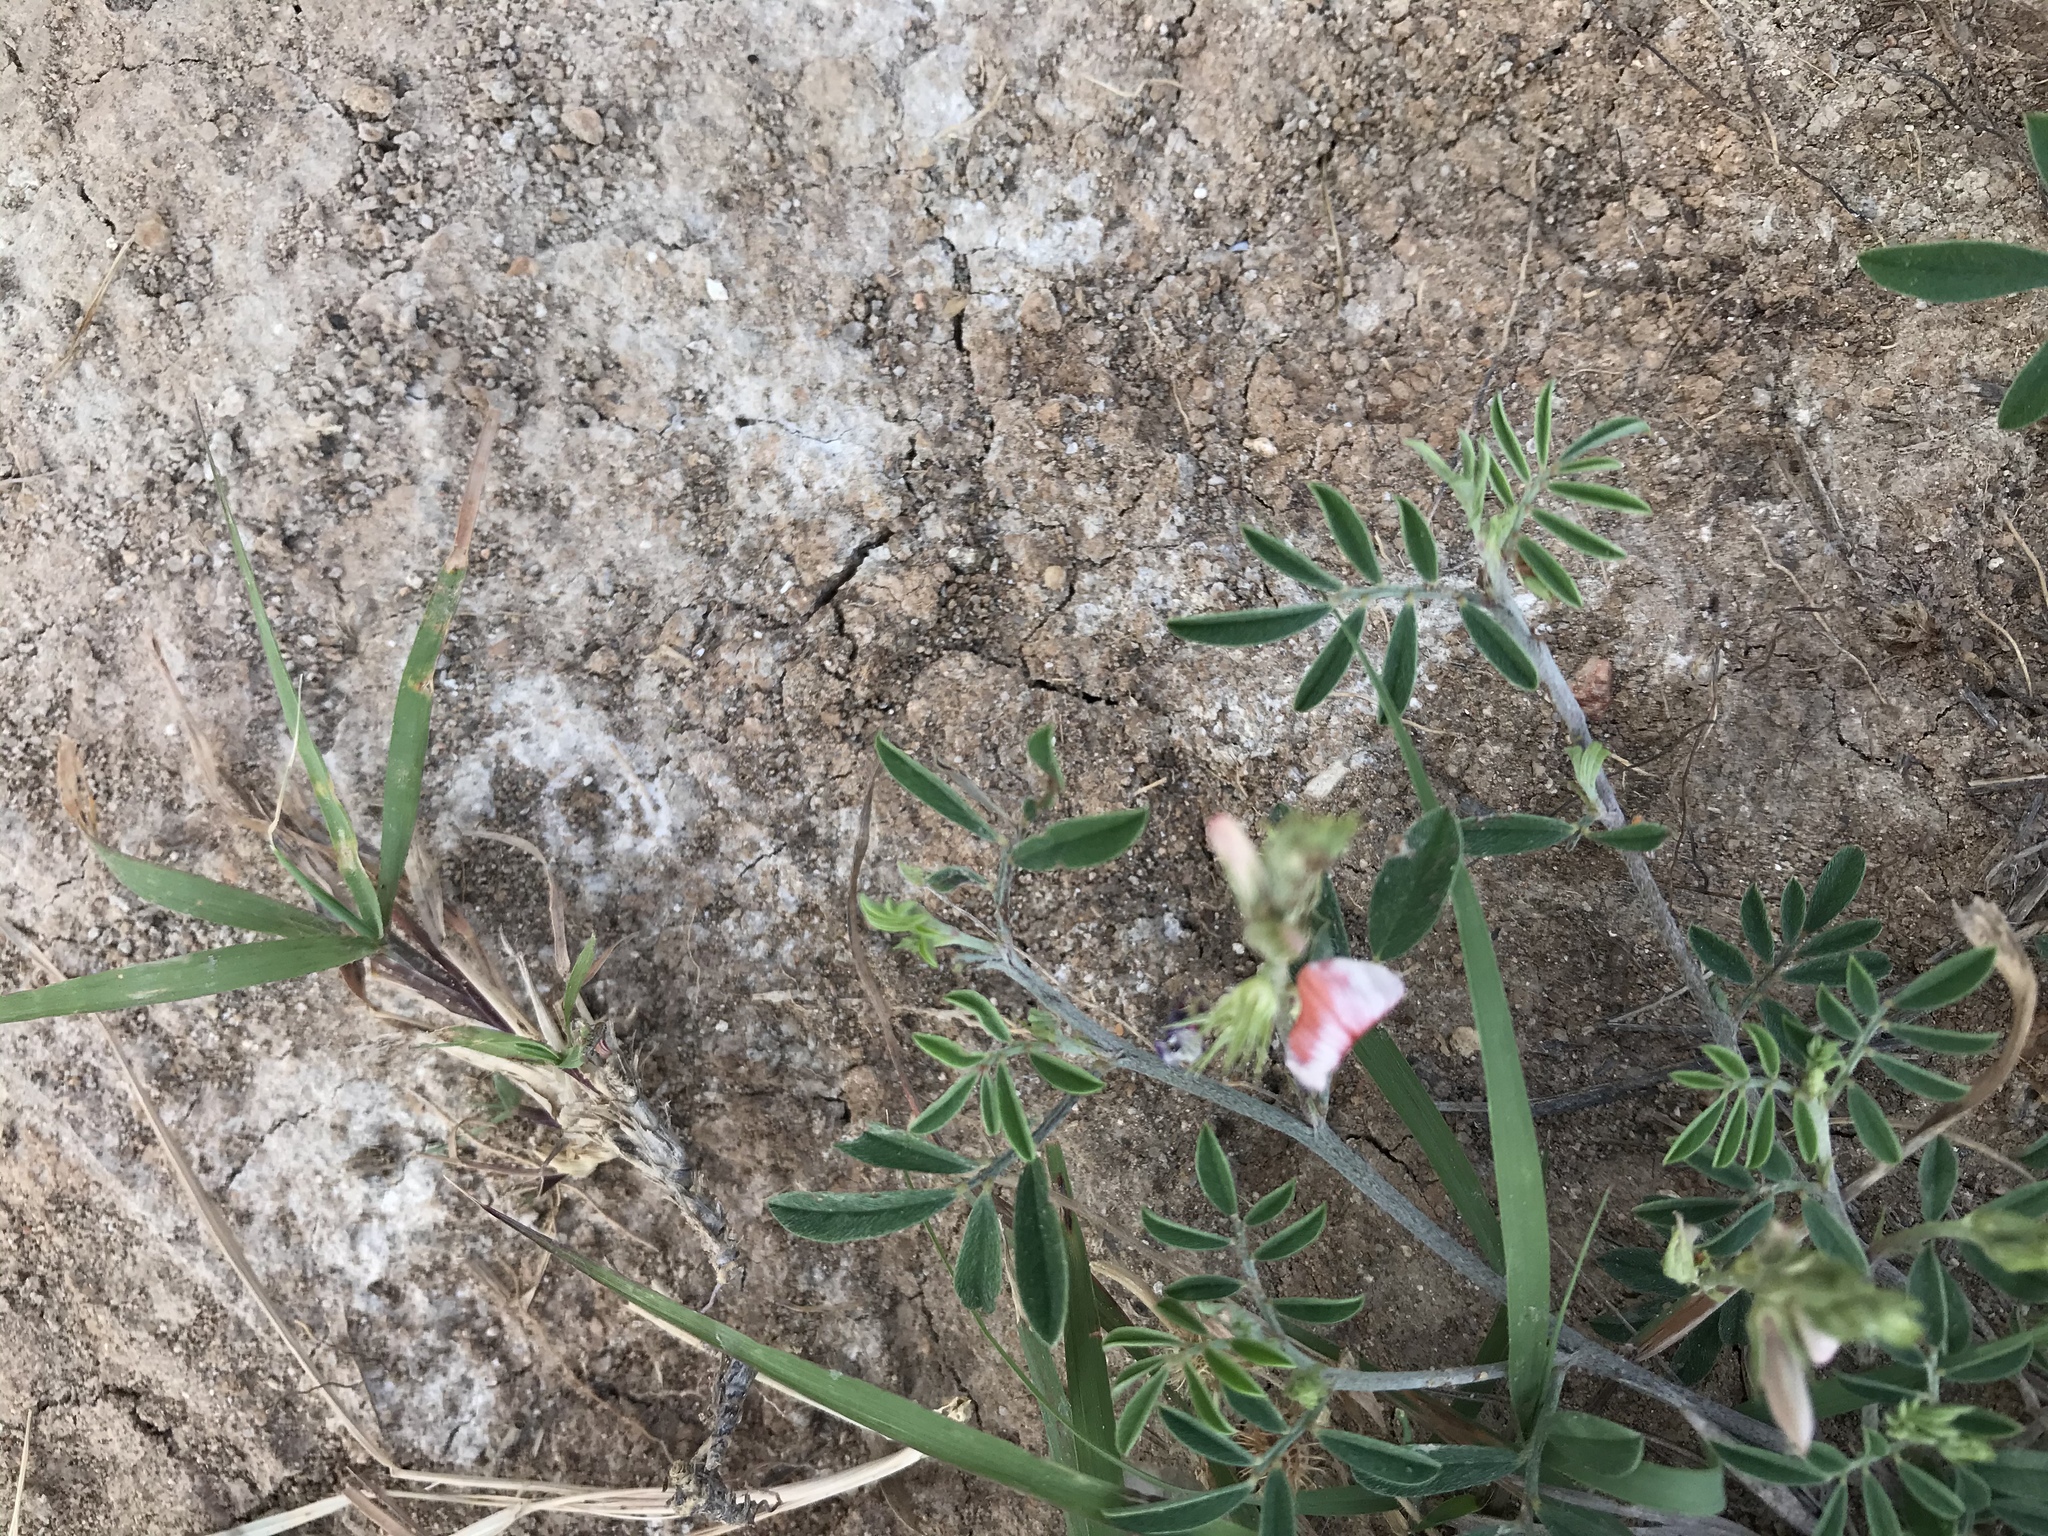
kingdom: Plantae
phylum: Tracheophyta
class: Magnoliopsida
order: Fabales
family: Fabaceae
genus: Indigofera
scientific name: Indigofera miniata
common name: Coast indigo
